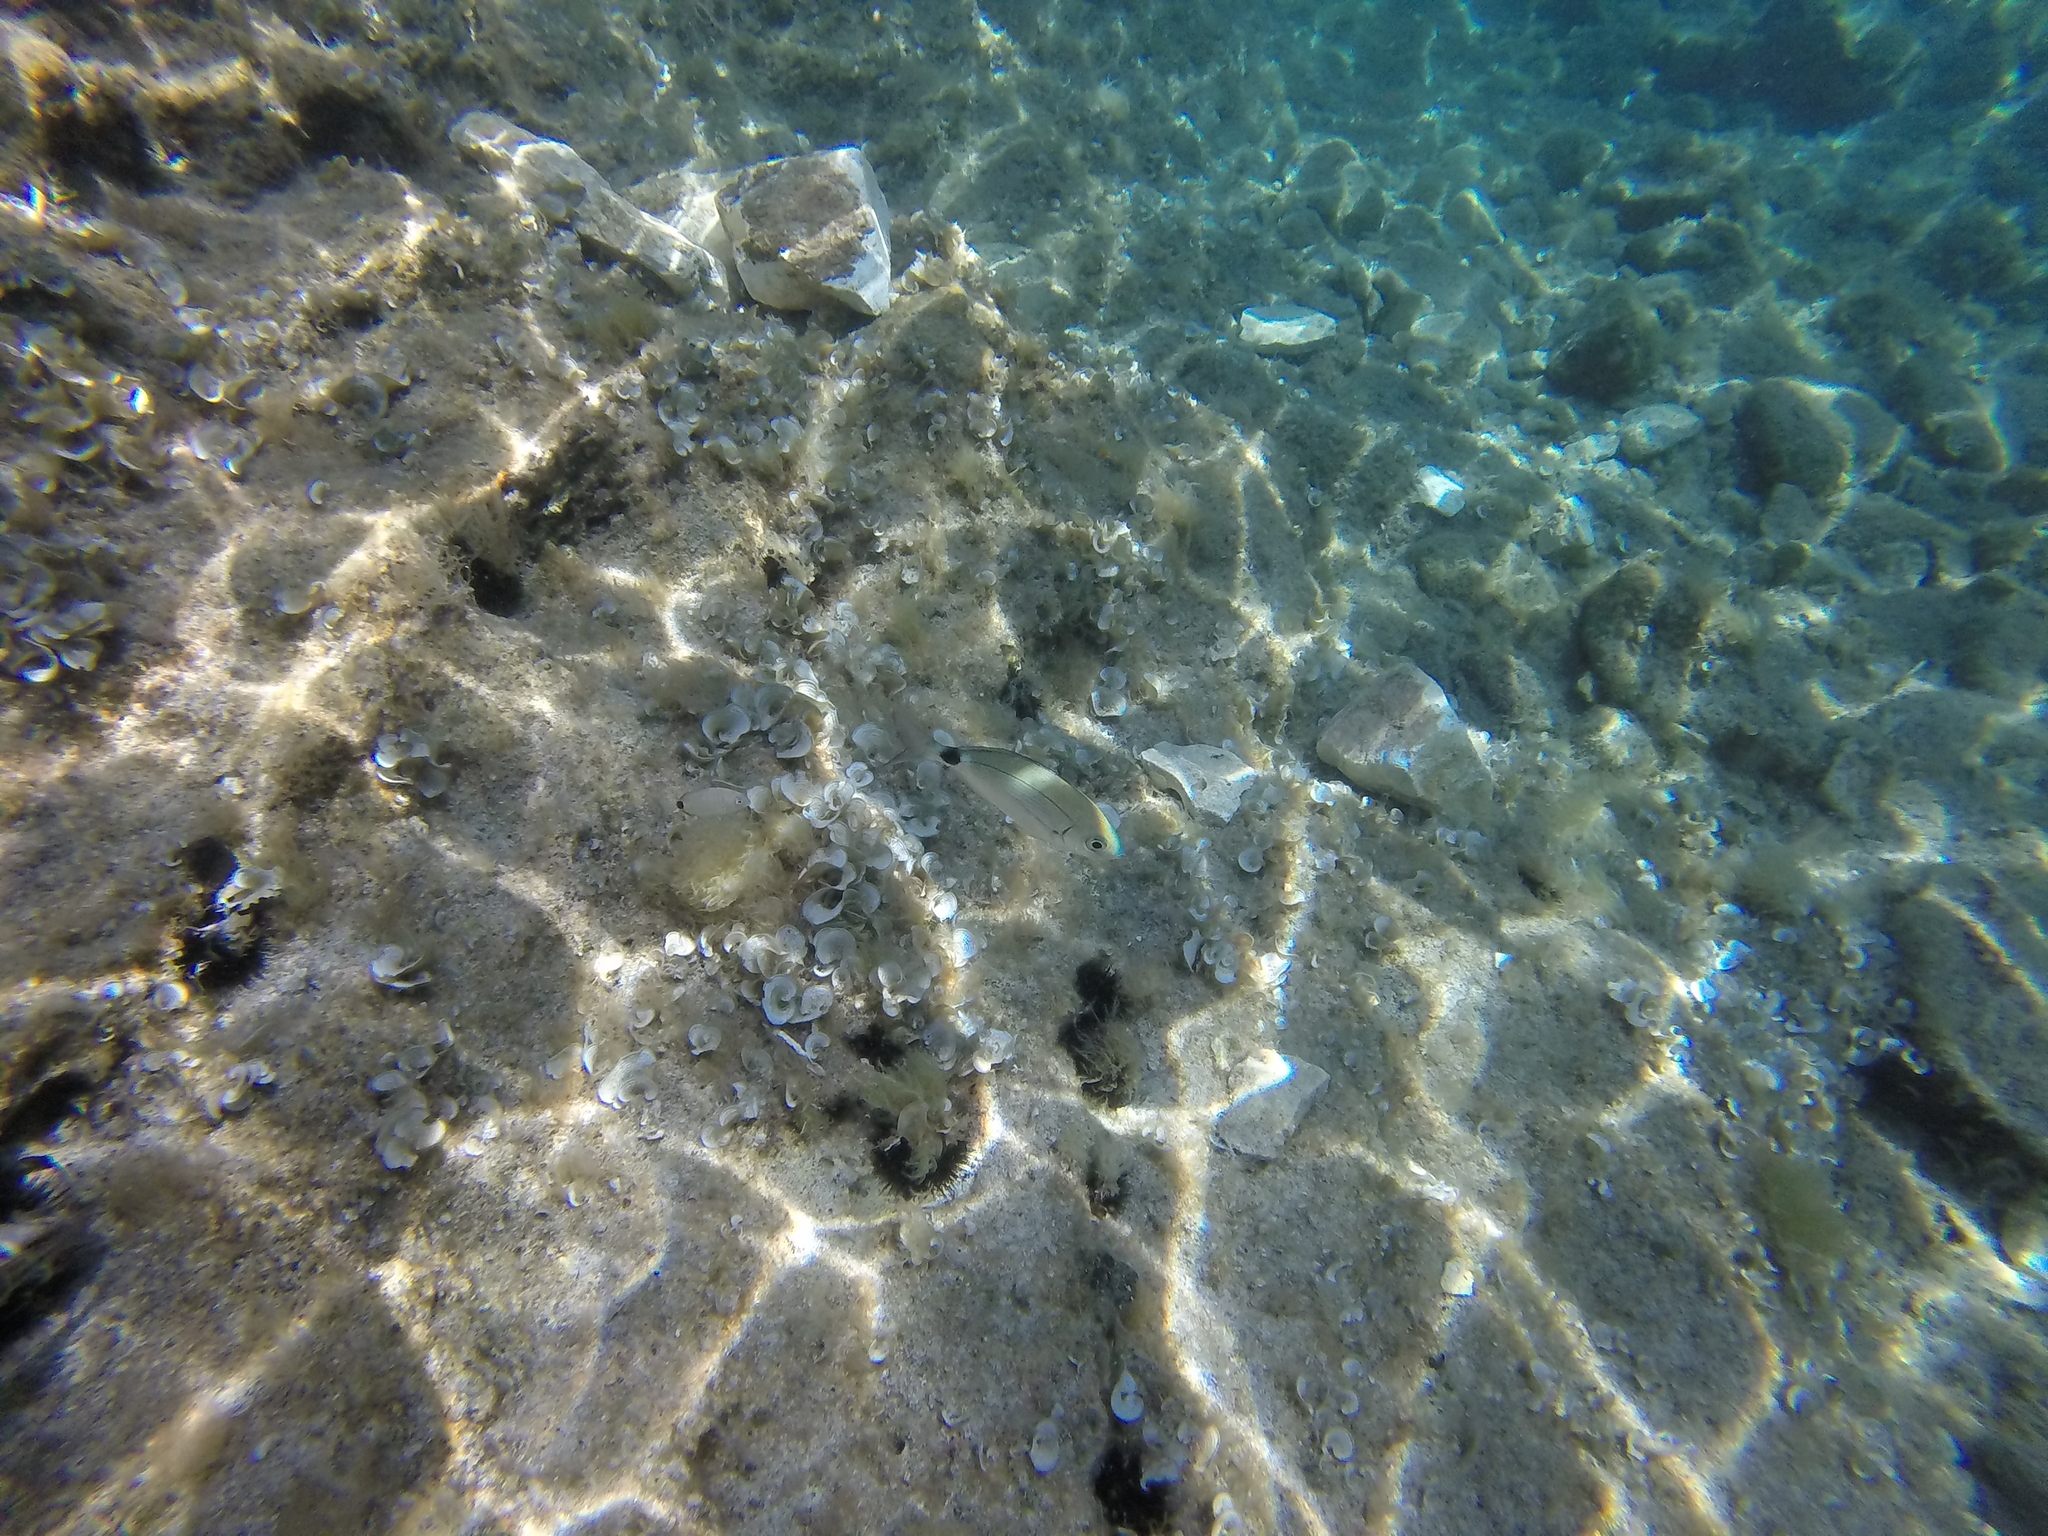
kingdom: Animalia
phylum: Chordata
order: Perciformes
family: Sparidae
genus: Oblada
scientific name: Oblada melanura
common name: Saddled seabream
